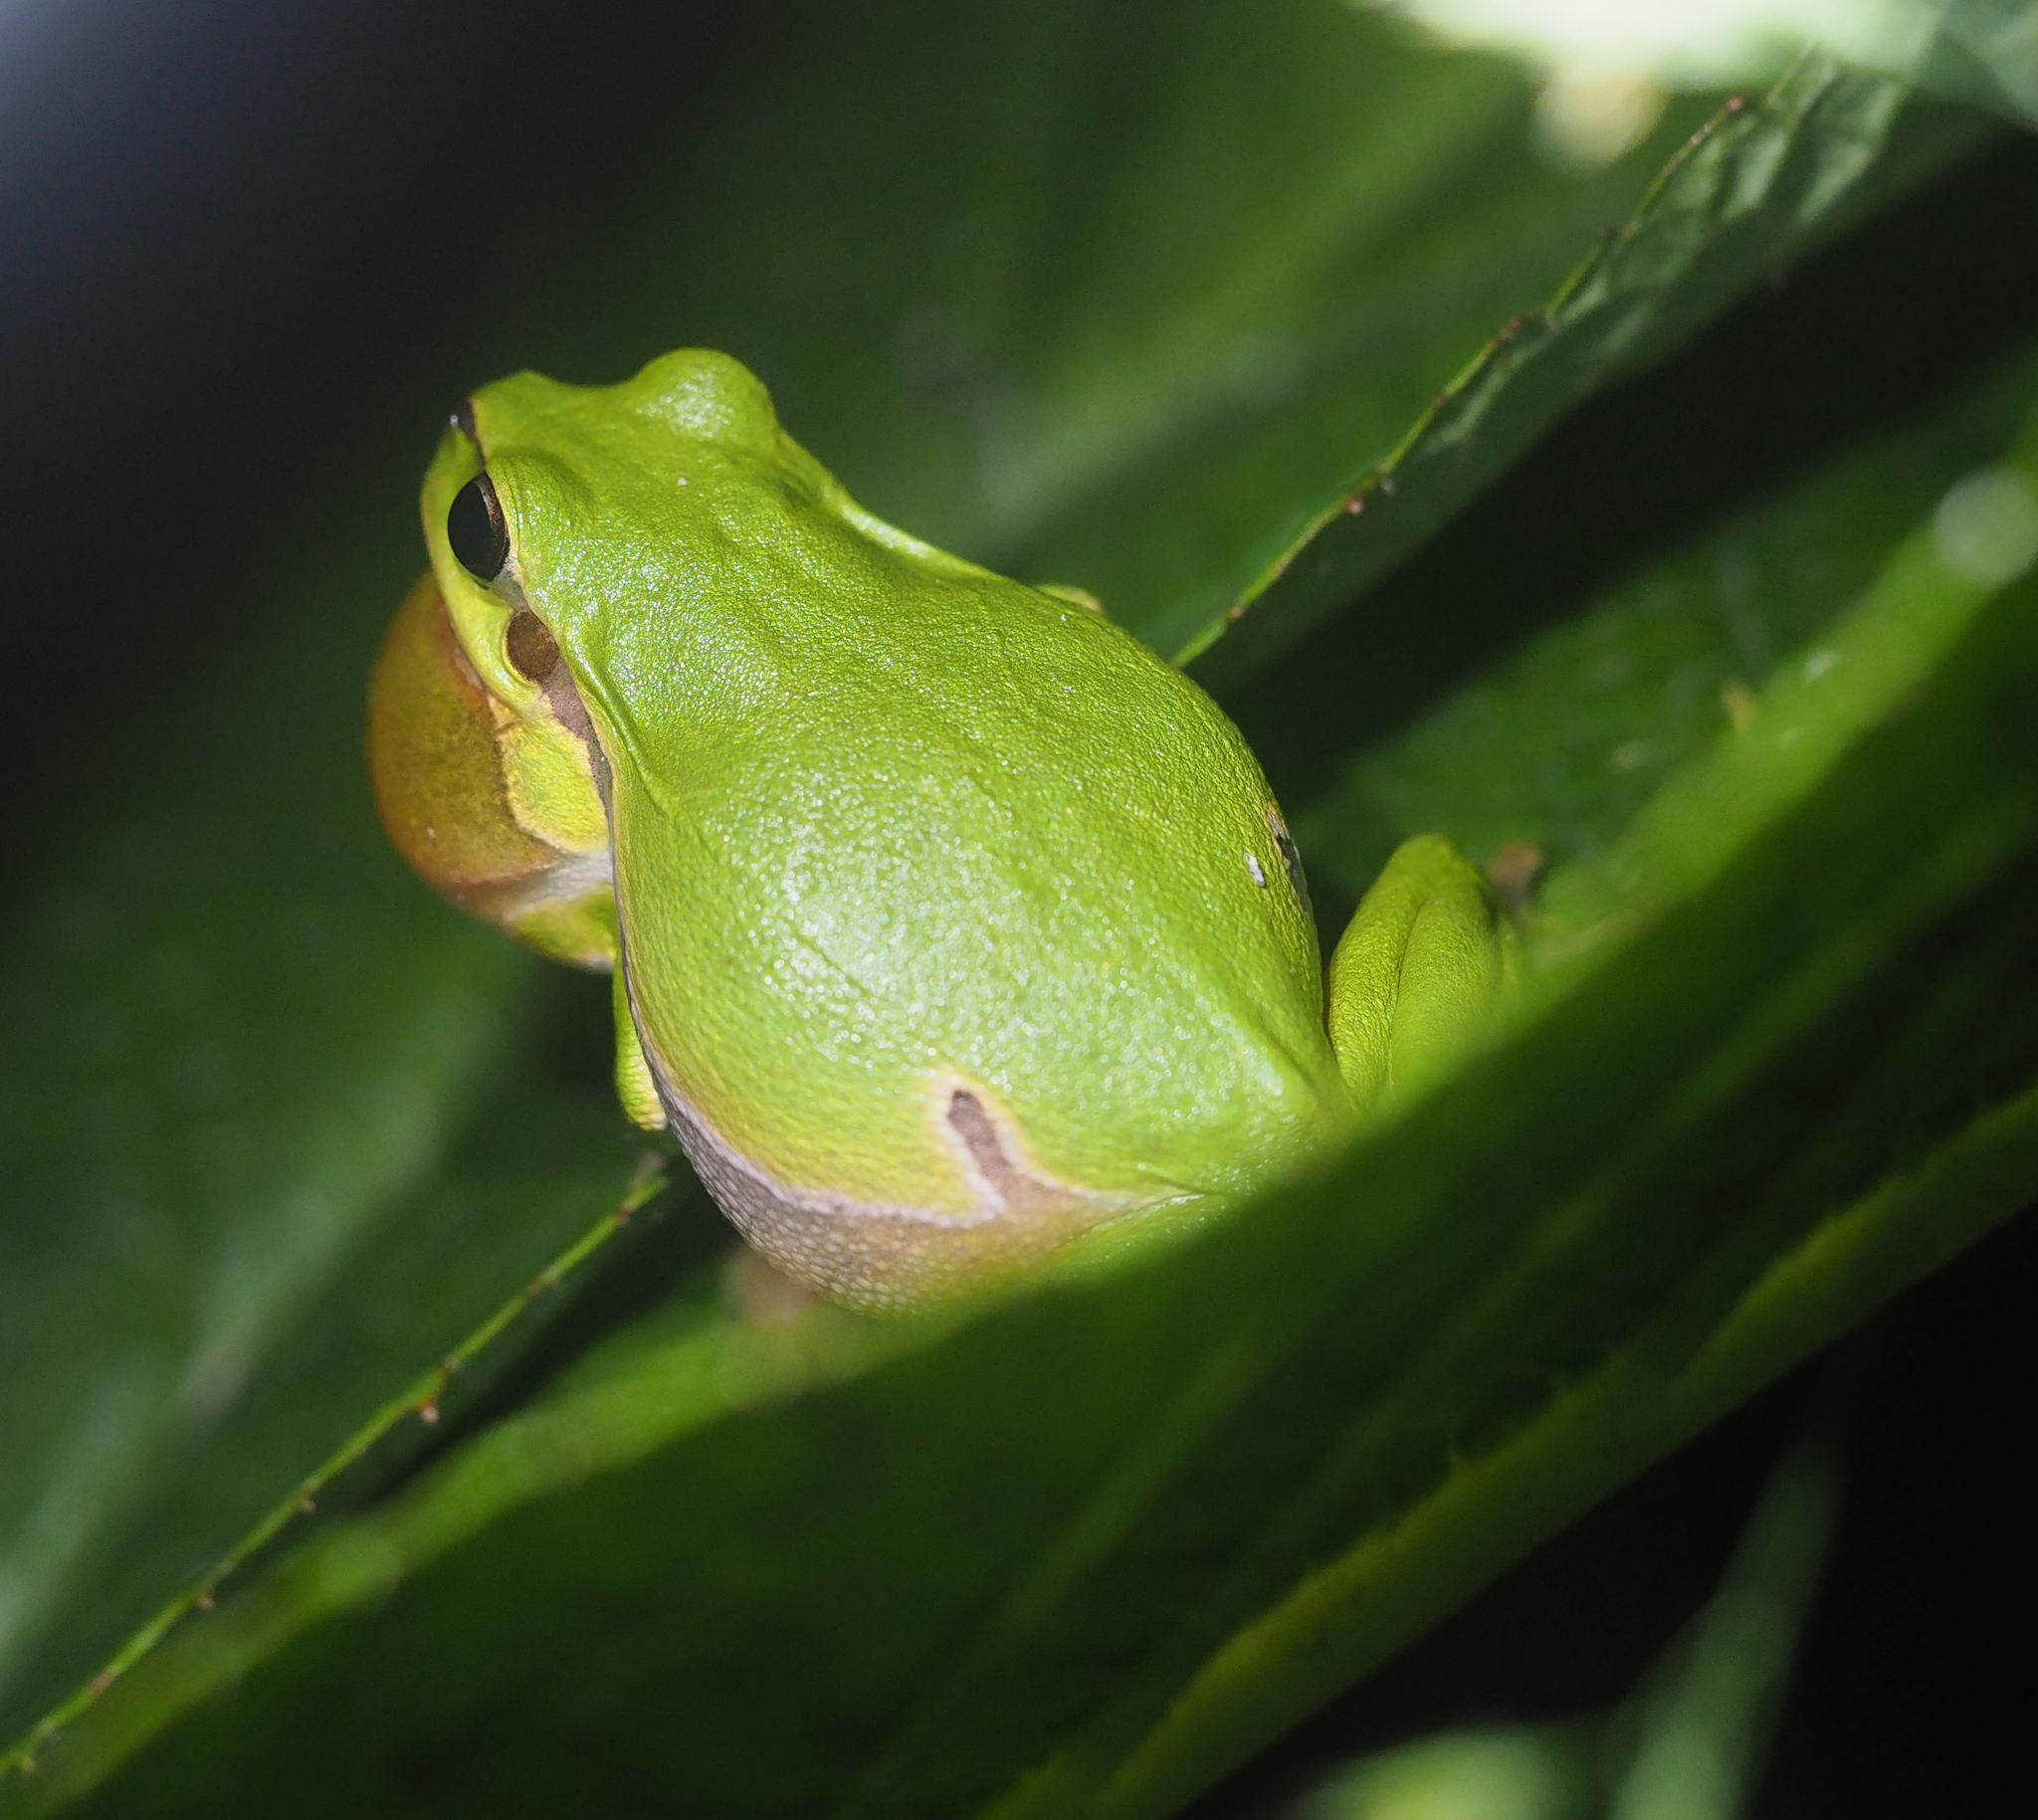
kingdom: Animalia
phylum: Chordata
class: Amphibia
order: Anura
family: Hylidae
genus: Hyla
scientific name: Hyla arborea
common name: Common tree frog
